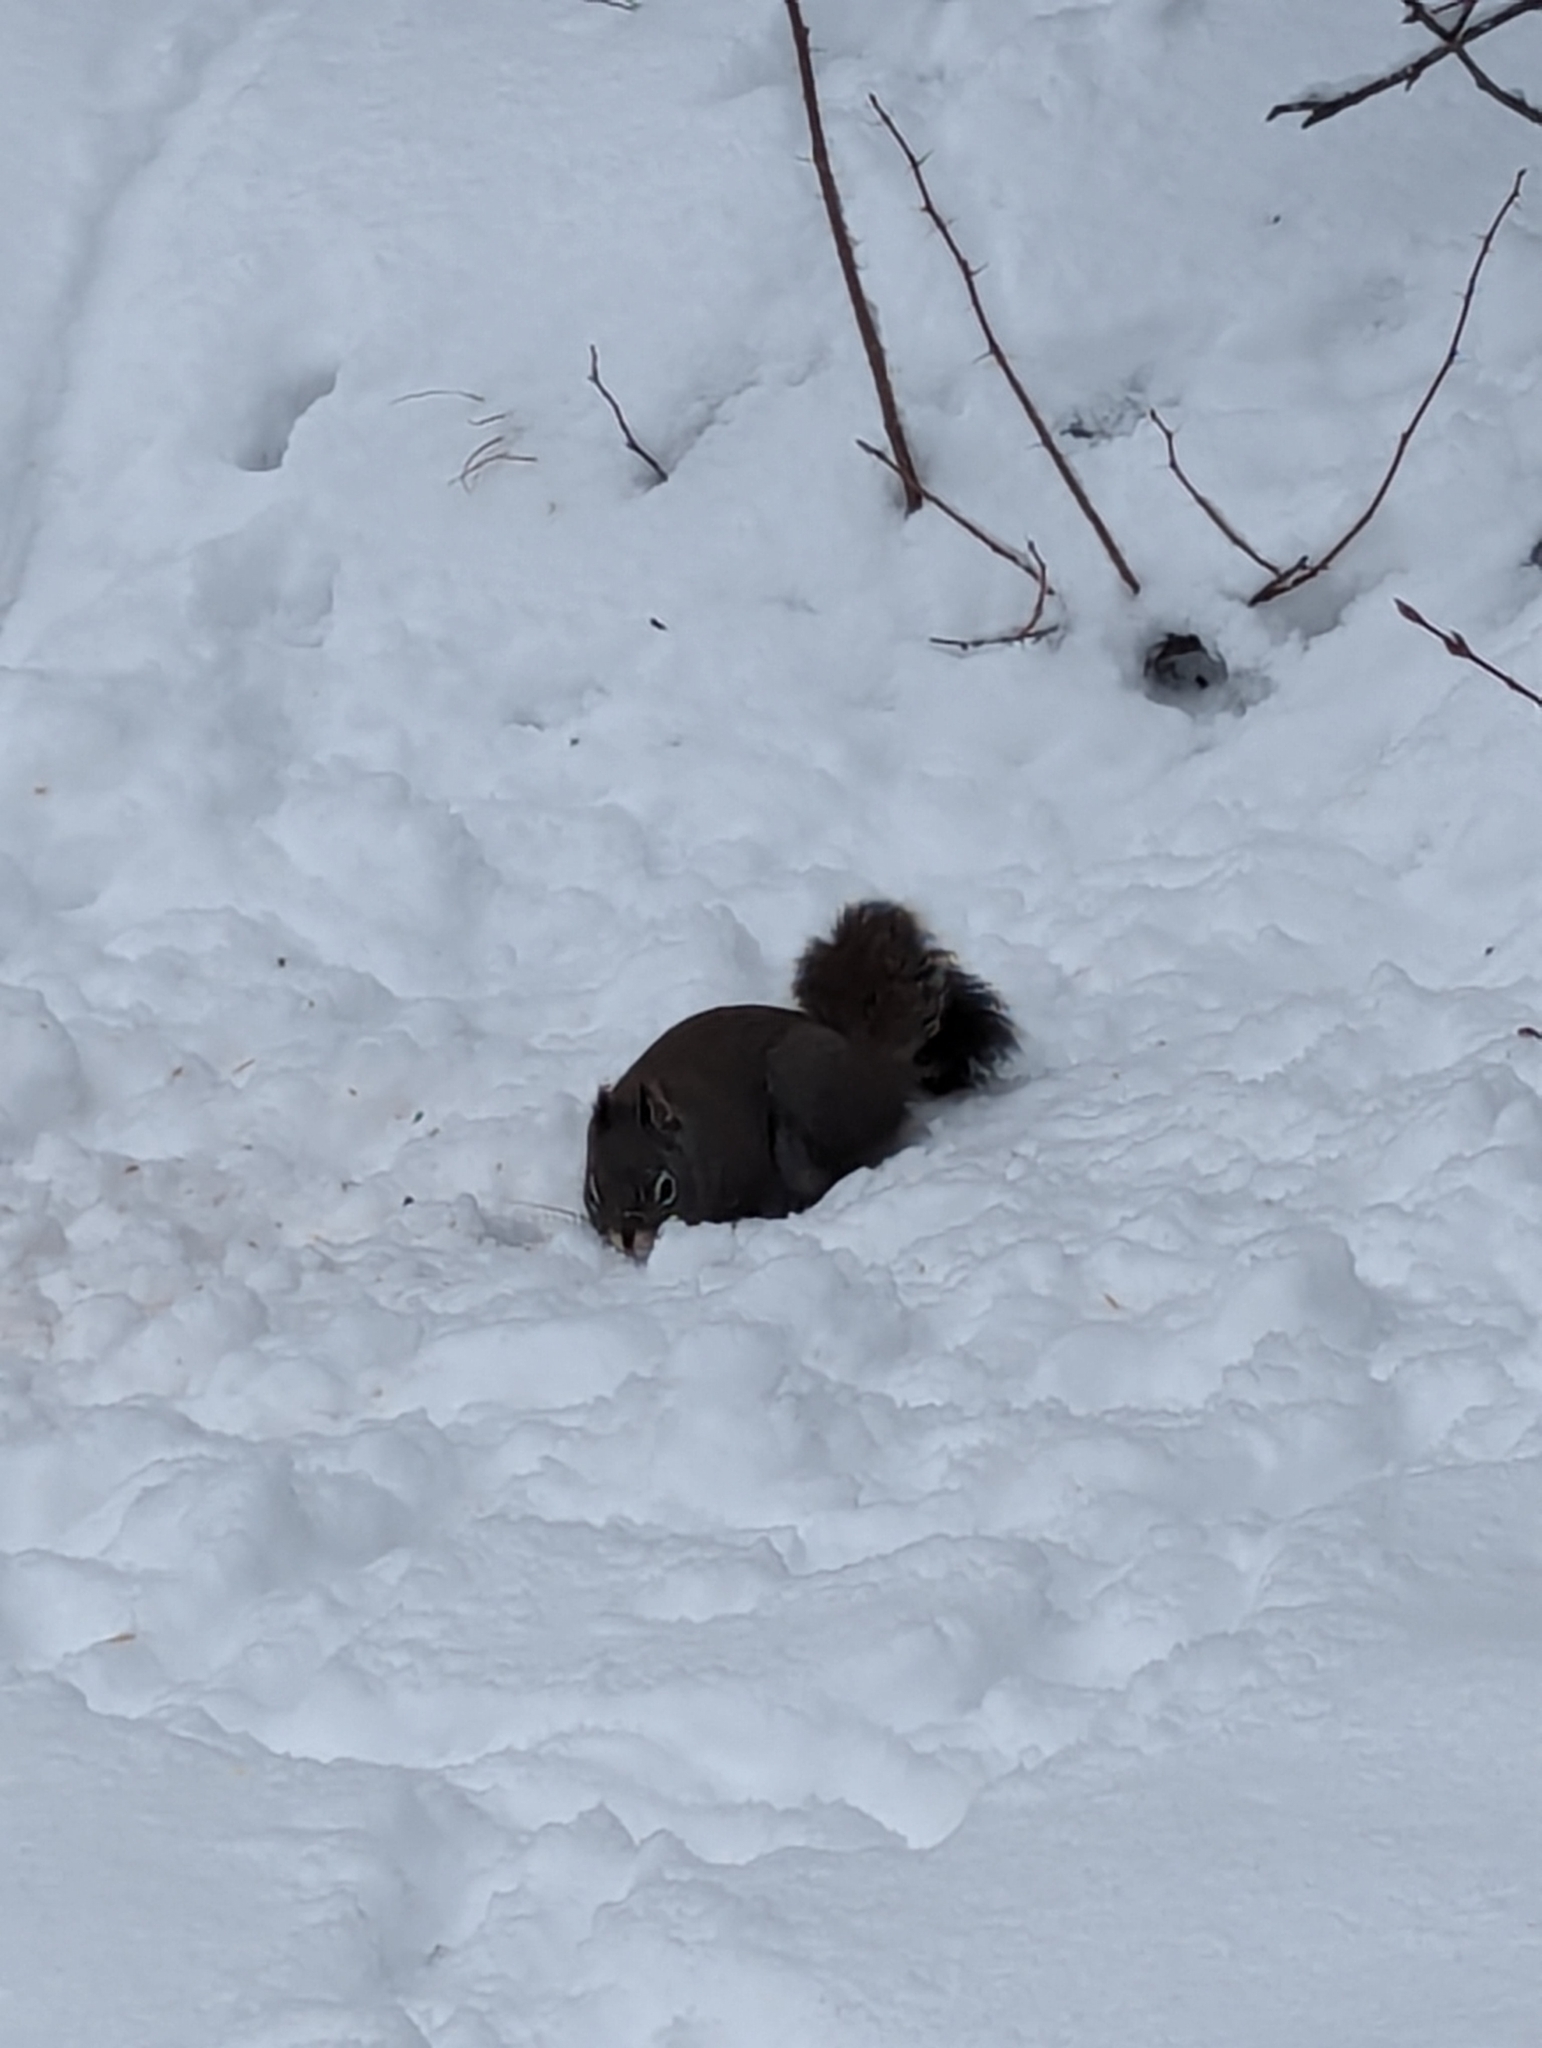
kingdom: Animalia
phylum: Chordata
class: Mammalia
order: Rodentia
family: Sciuridae
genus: Tamiasciurus
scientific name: Tamiasciurus hudsonicus
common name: Red squirrel
